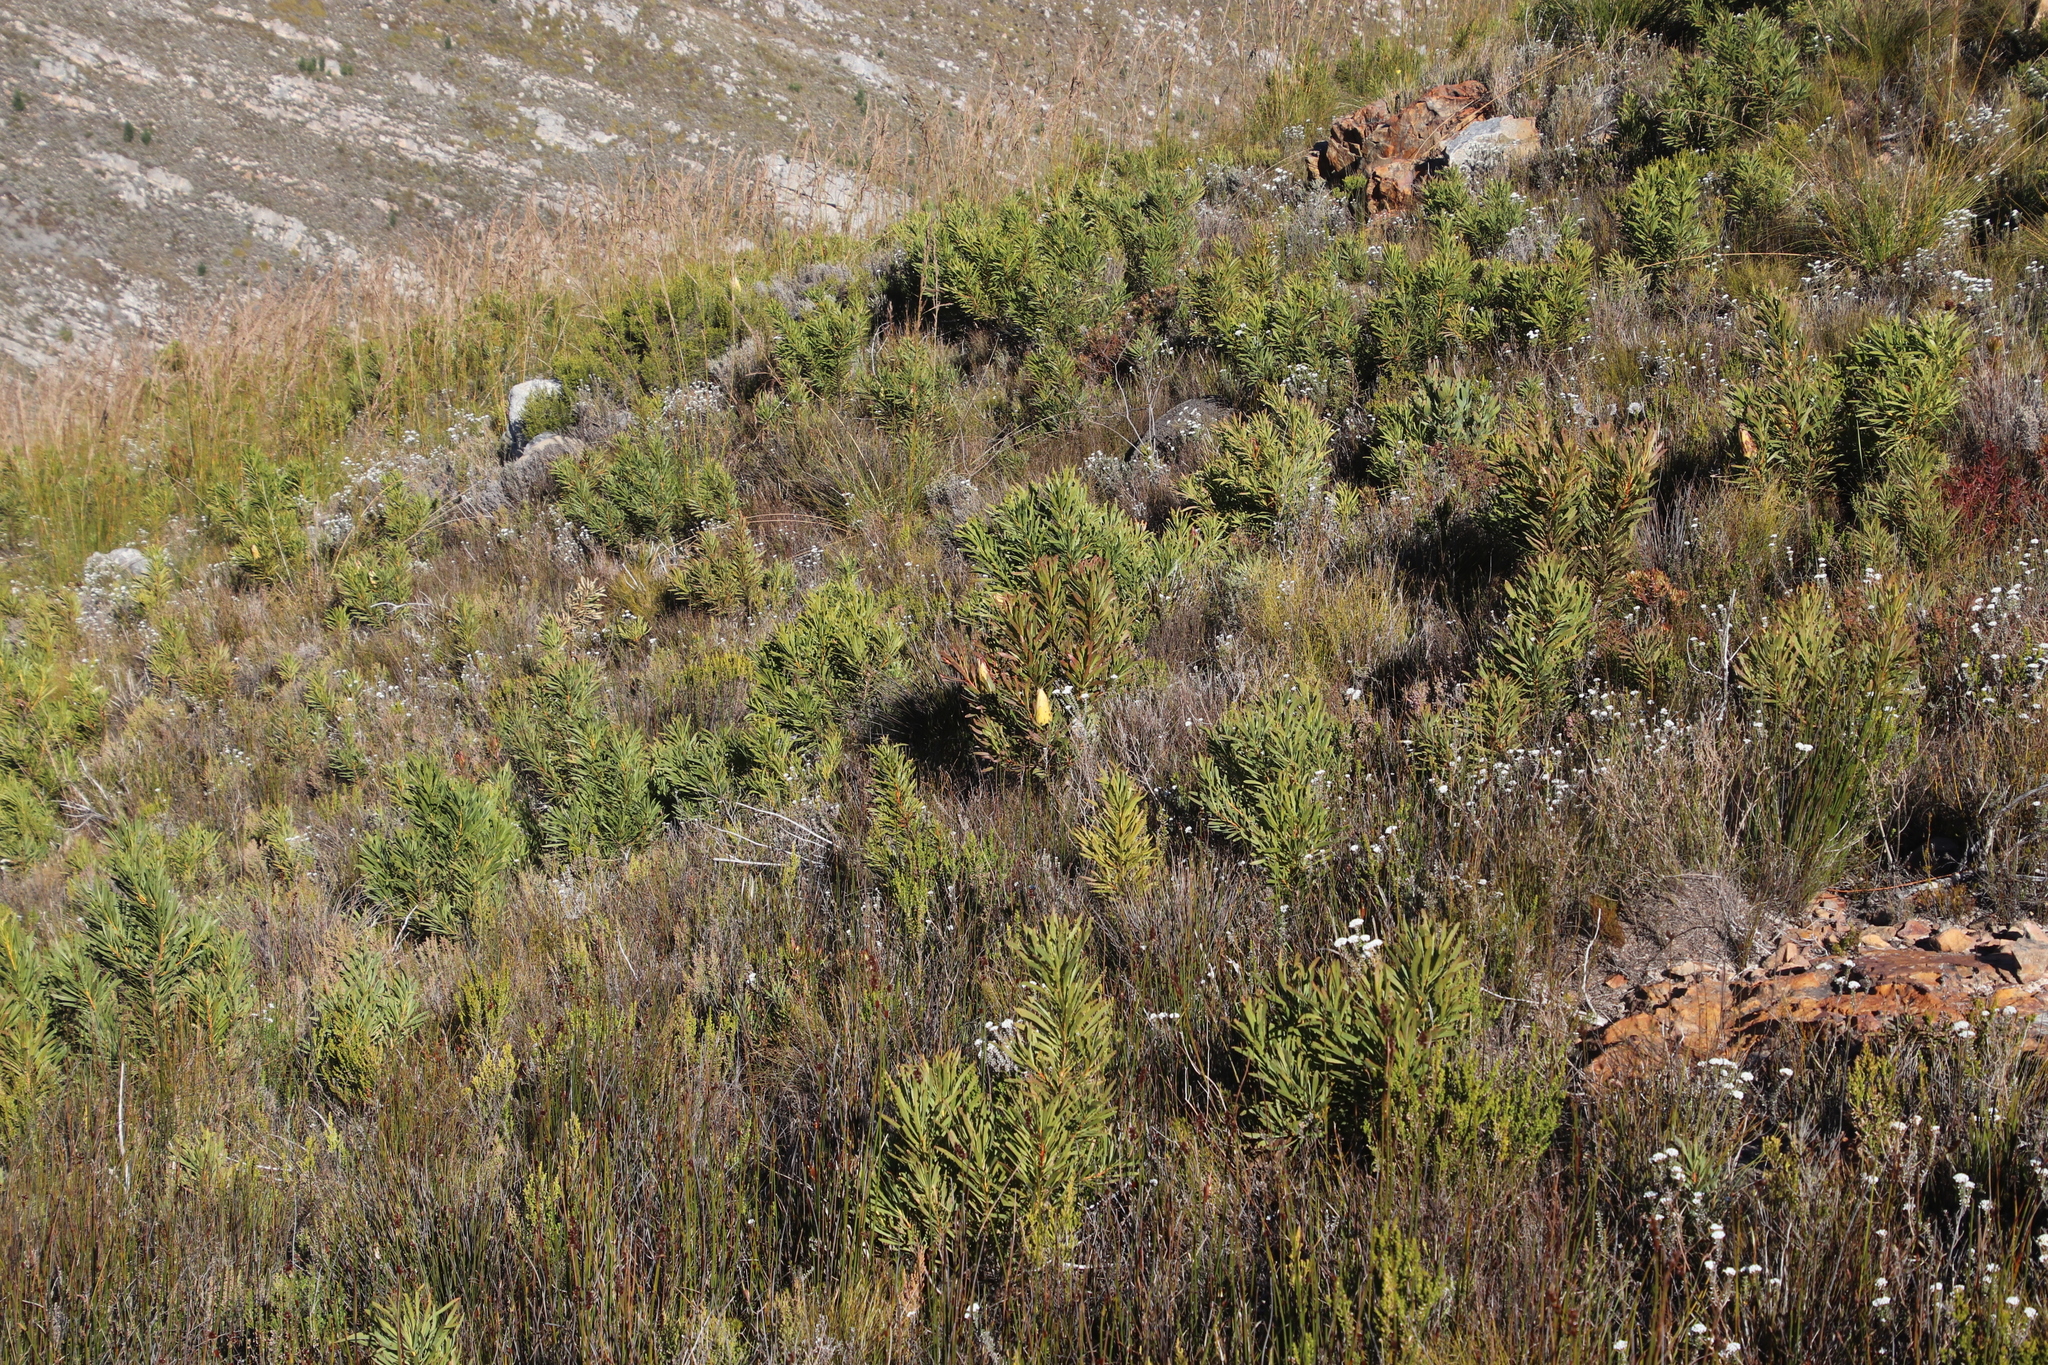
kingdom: Plantae
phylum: Tracheophyta
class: Magnoliopsida
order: Proteales
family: Proteaceae
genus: Protea
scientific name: Protea repens
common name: Sugarbush
